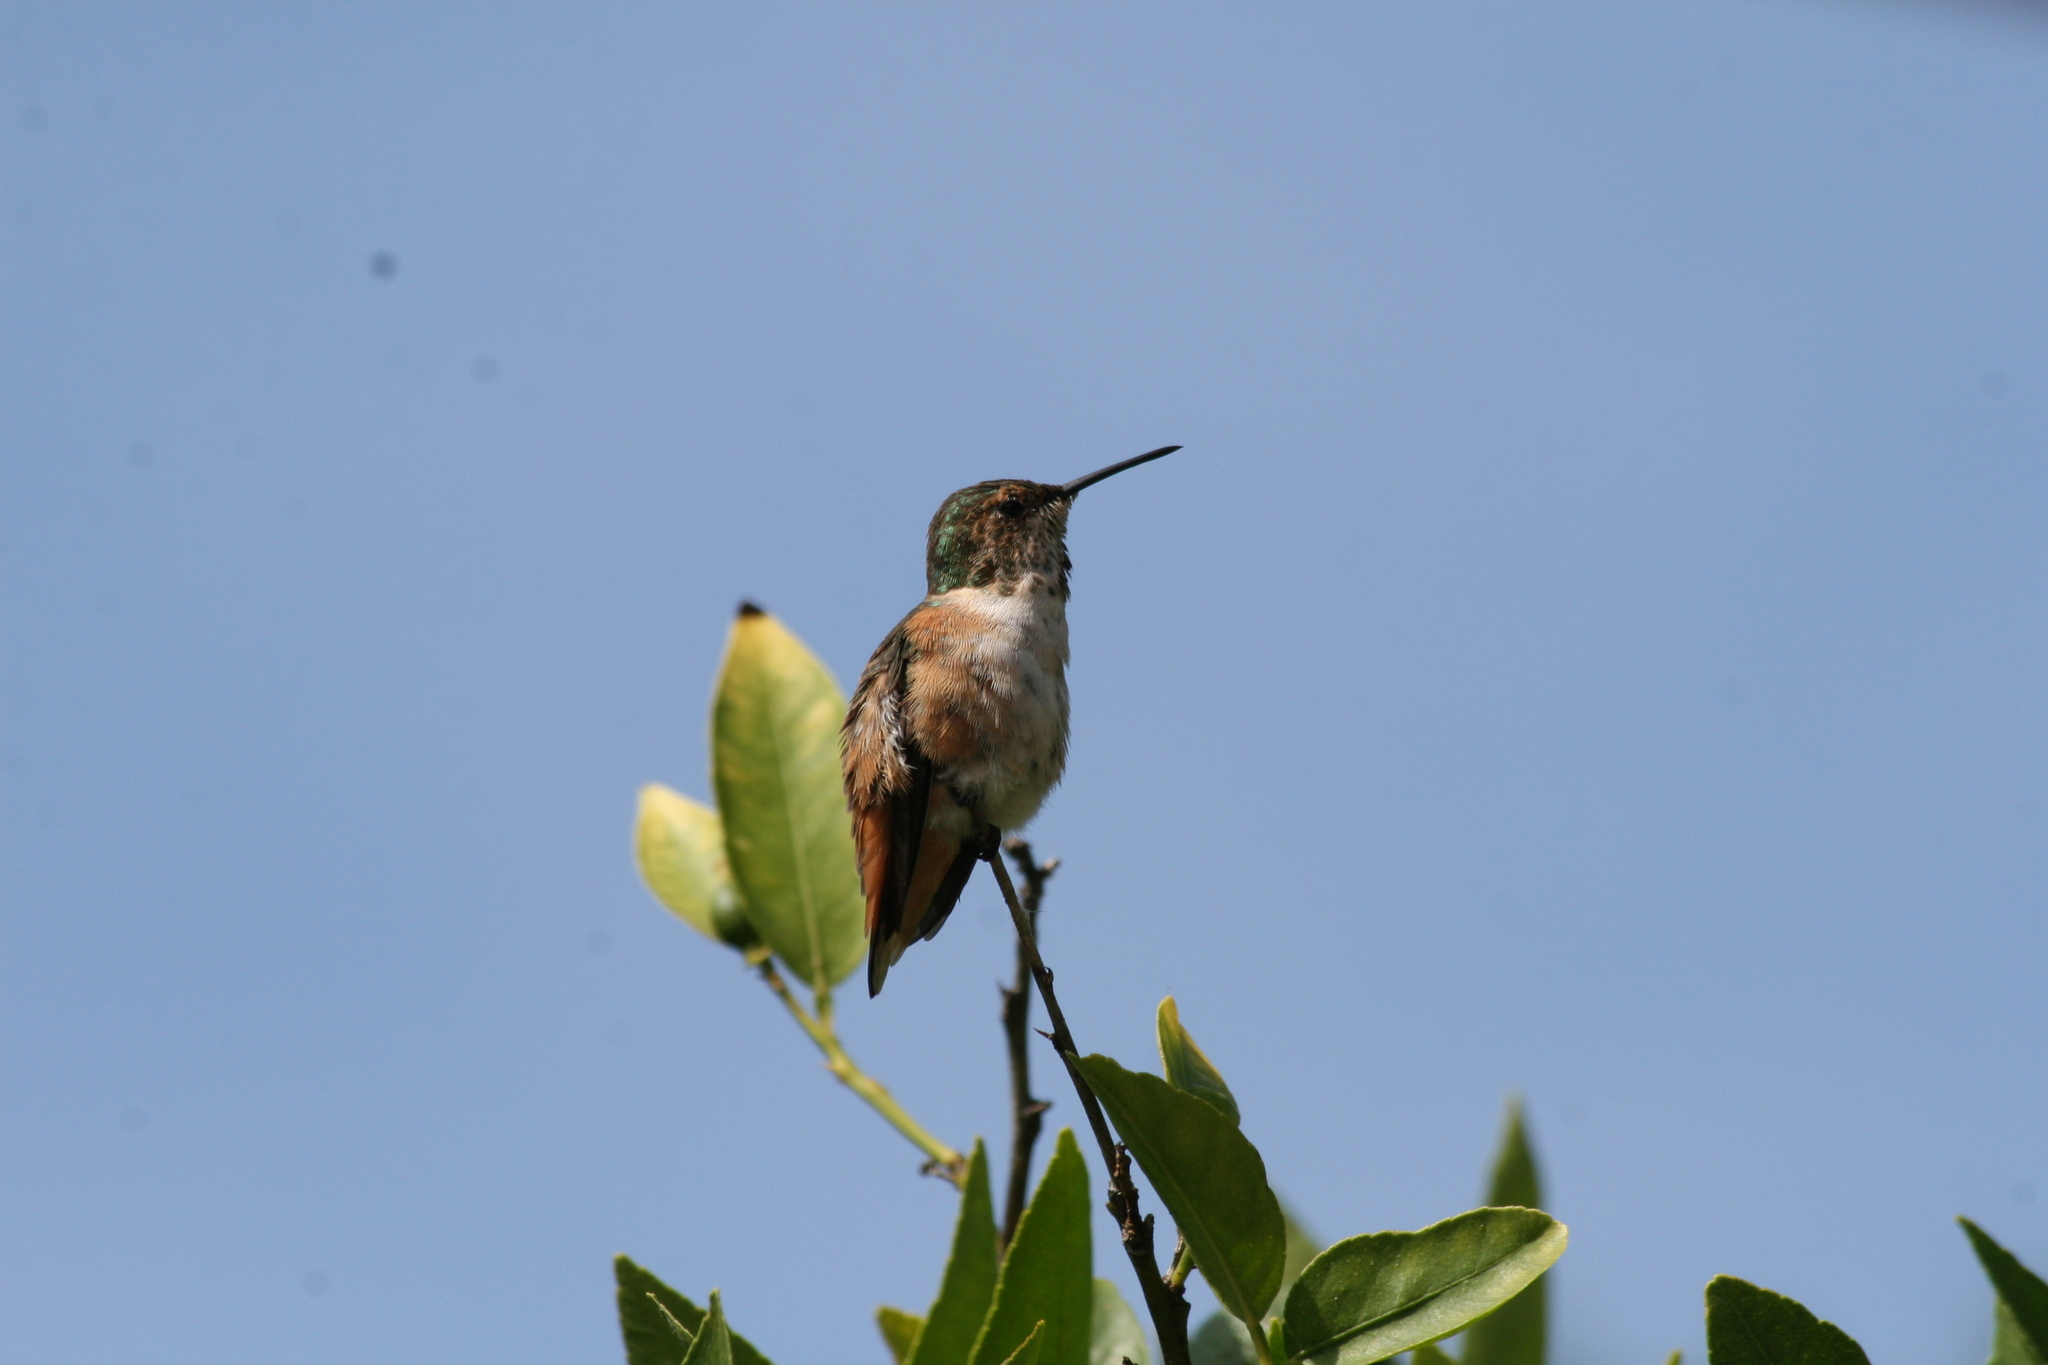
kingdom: Animalia
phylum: Chordata
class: Aves
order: Apodiformes
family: Trochilidae
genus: Selasphorus
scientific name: Selasphorus sasin
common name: Allen's hummingbird
